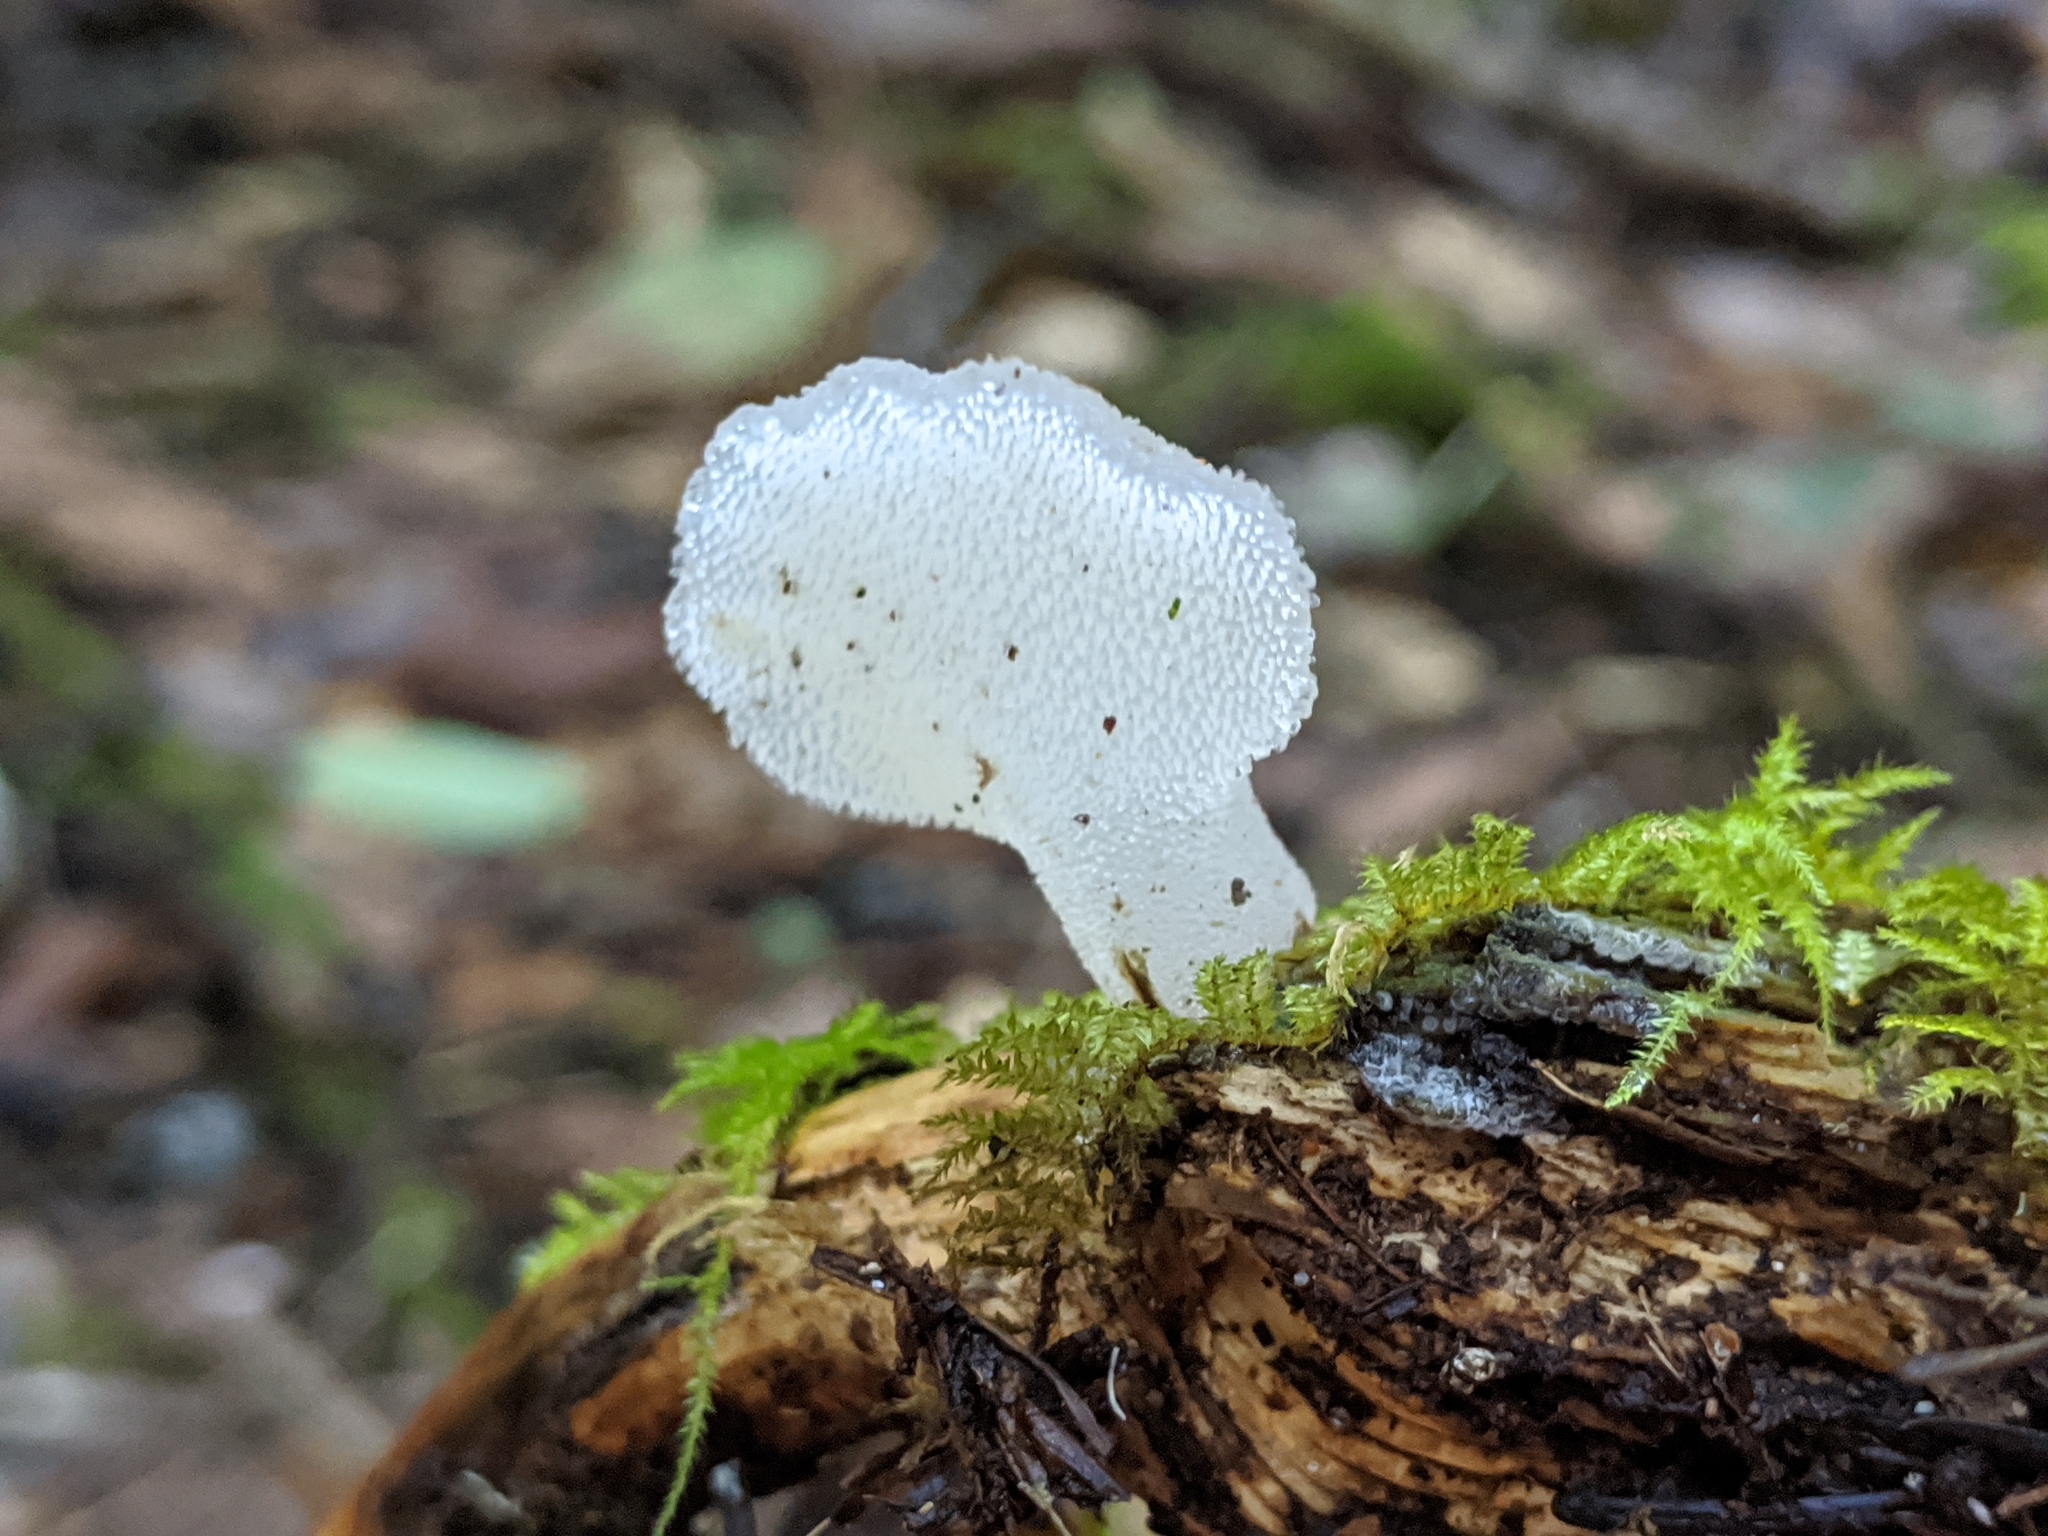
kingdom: Fungi
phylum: Basidiomycota
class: Agaricomycetes
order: Auriculariales
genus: Pseudohydnum
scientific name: Pseudohydnum gelatinosum
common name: Jelly tongue
